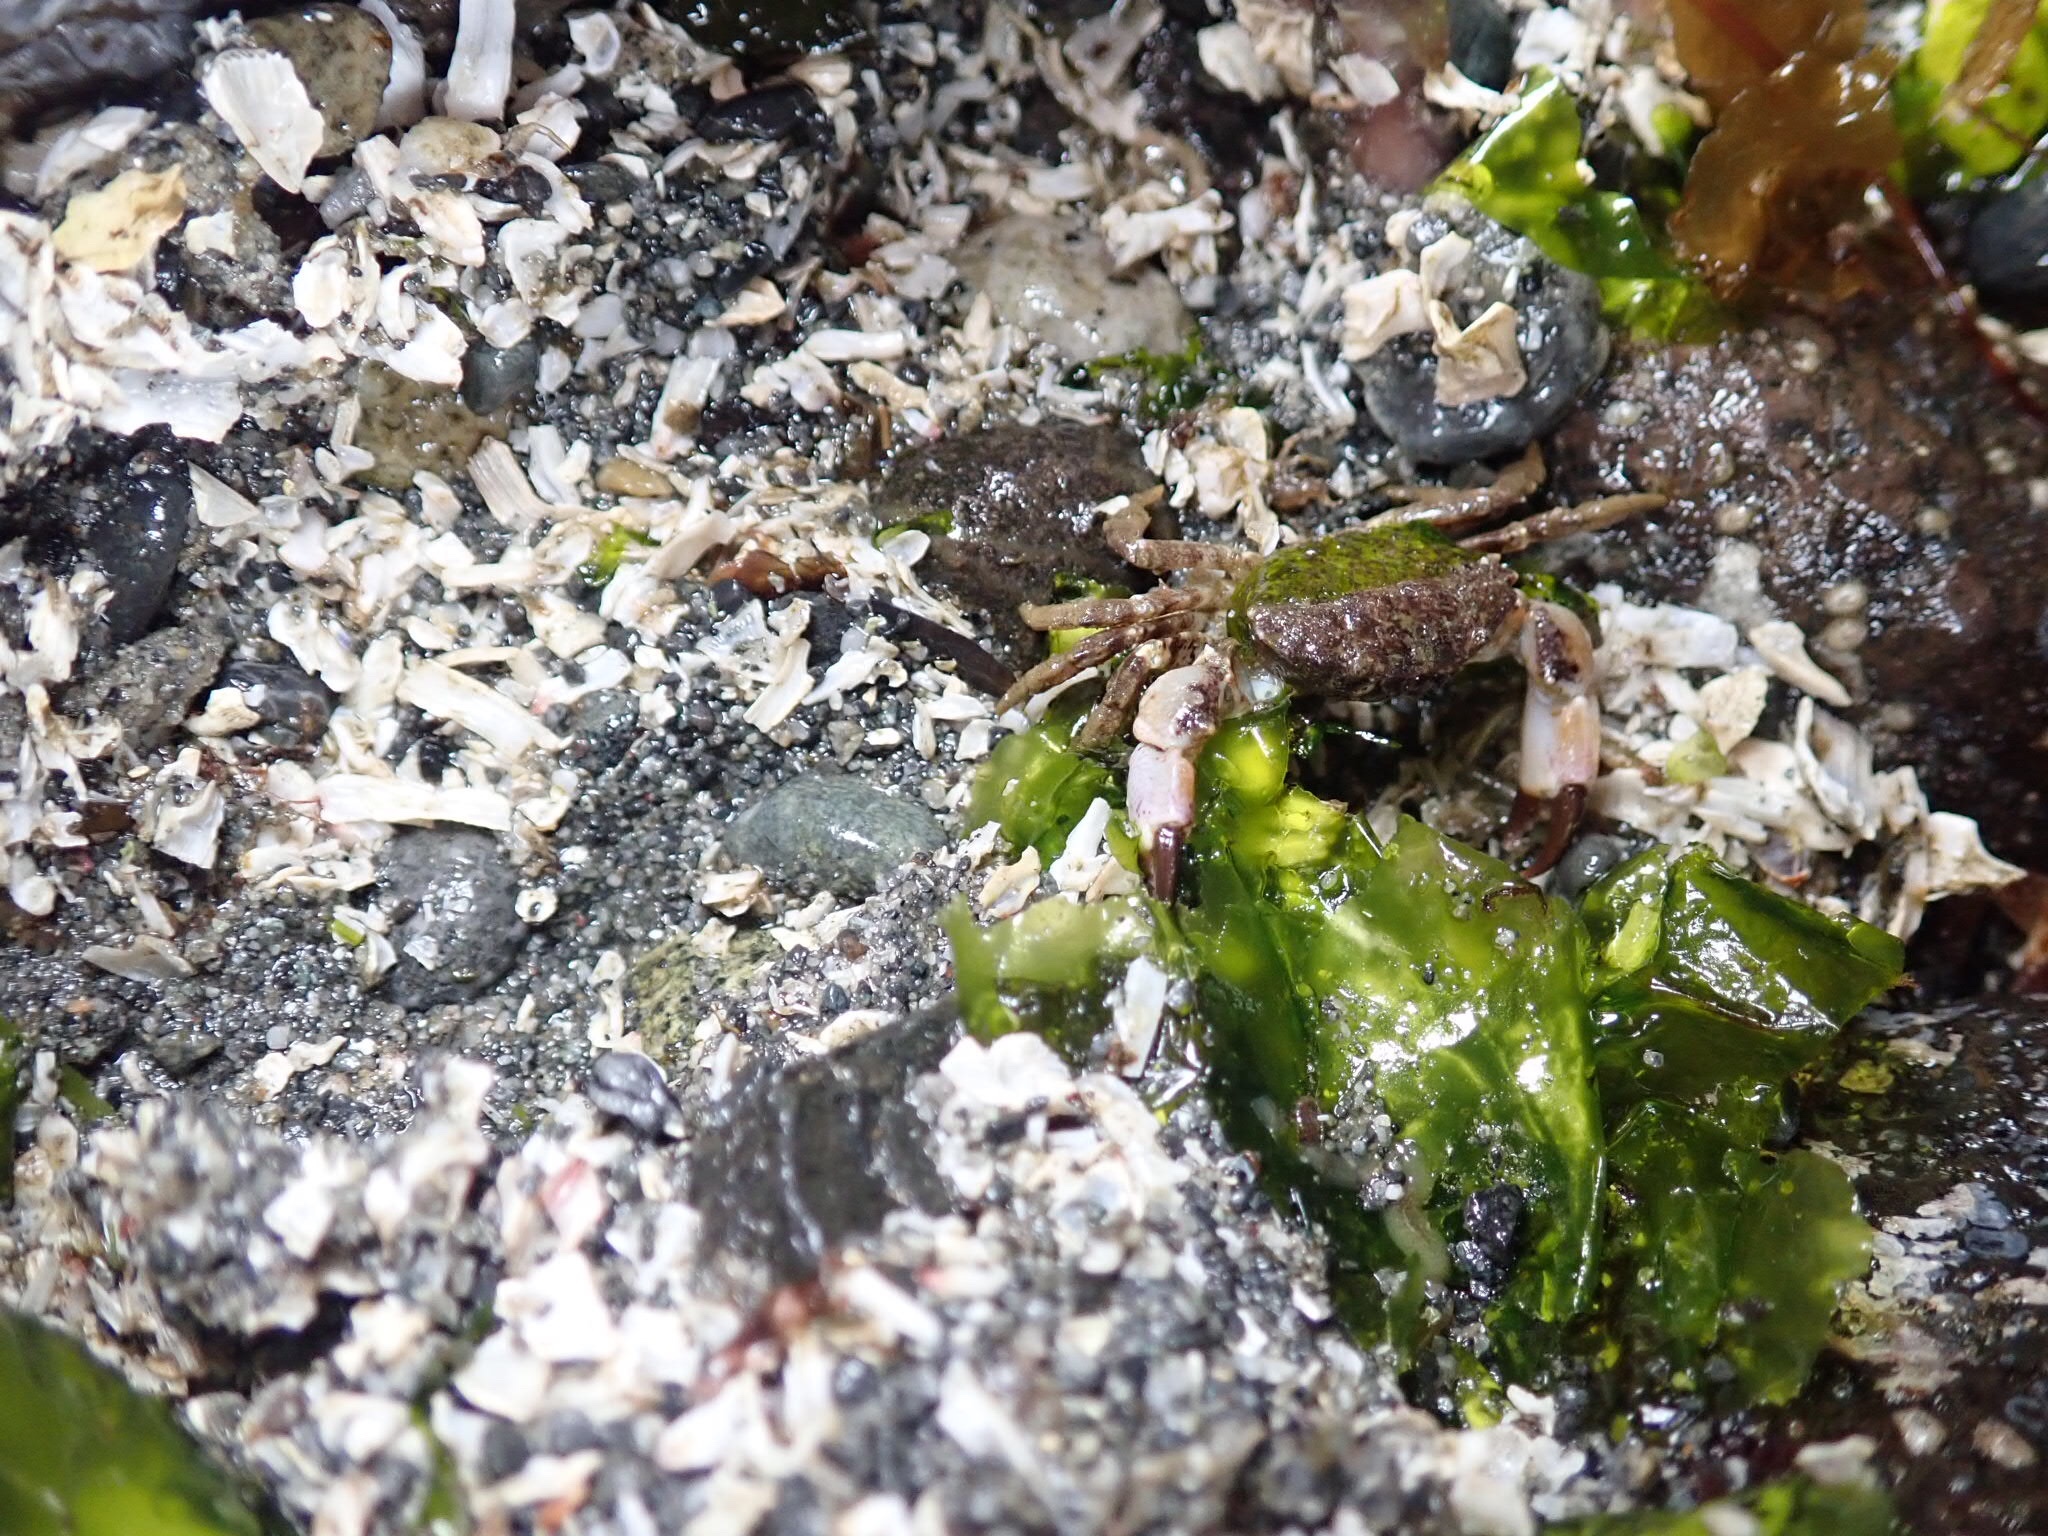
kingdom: Animalia
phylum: Arthropoda
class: Malacostraca
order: Decapoda
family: Panopeidae
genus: Lophopanopeus
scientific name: Lophopanopeus bellus
